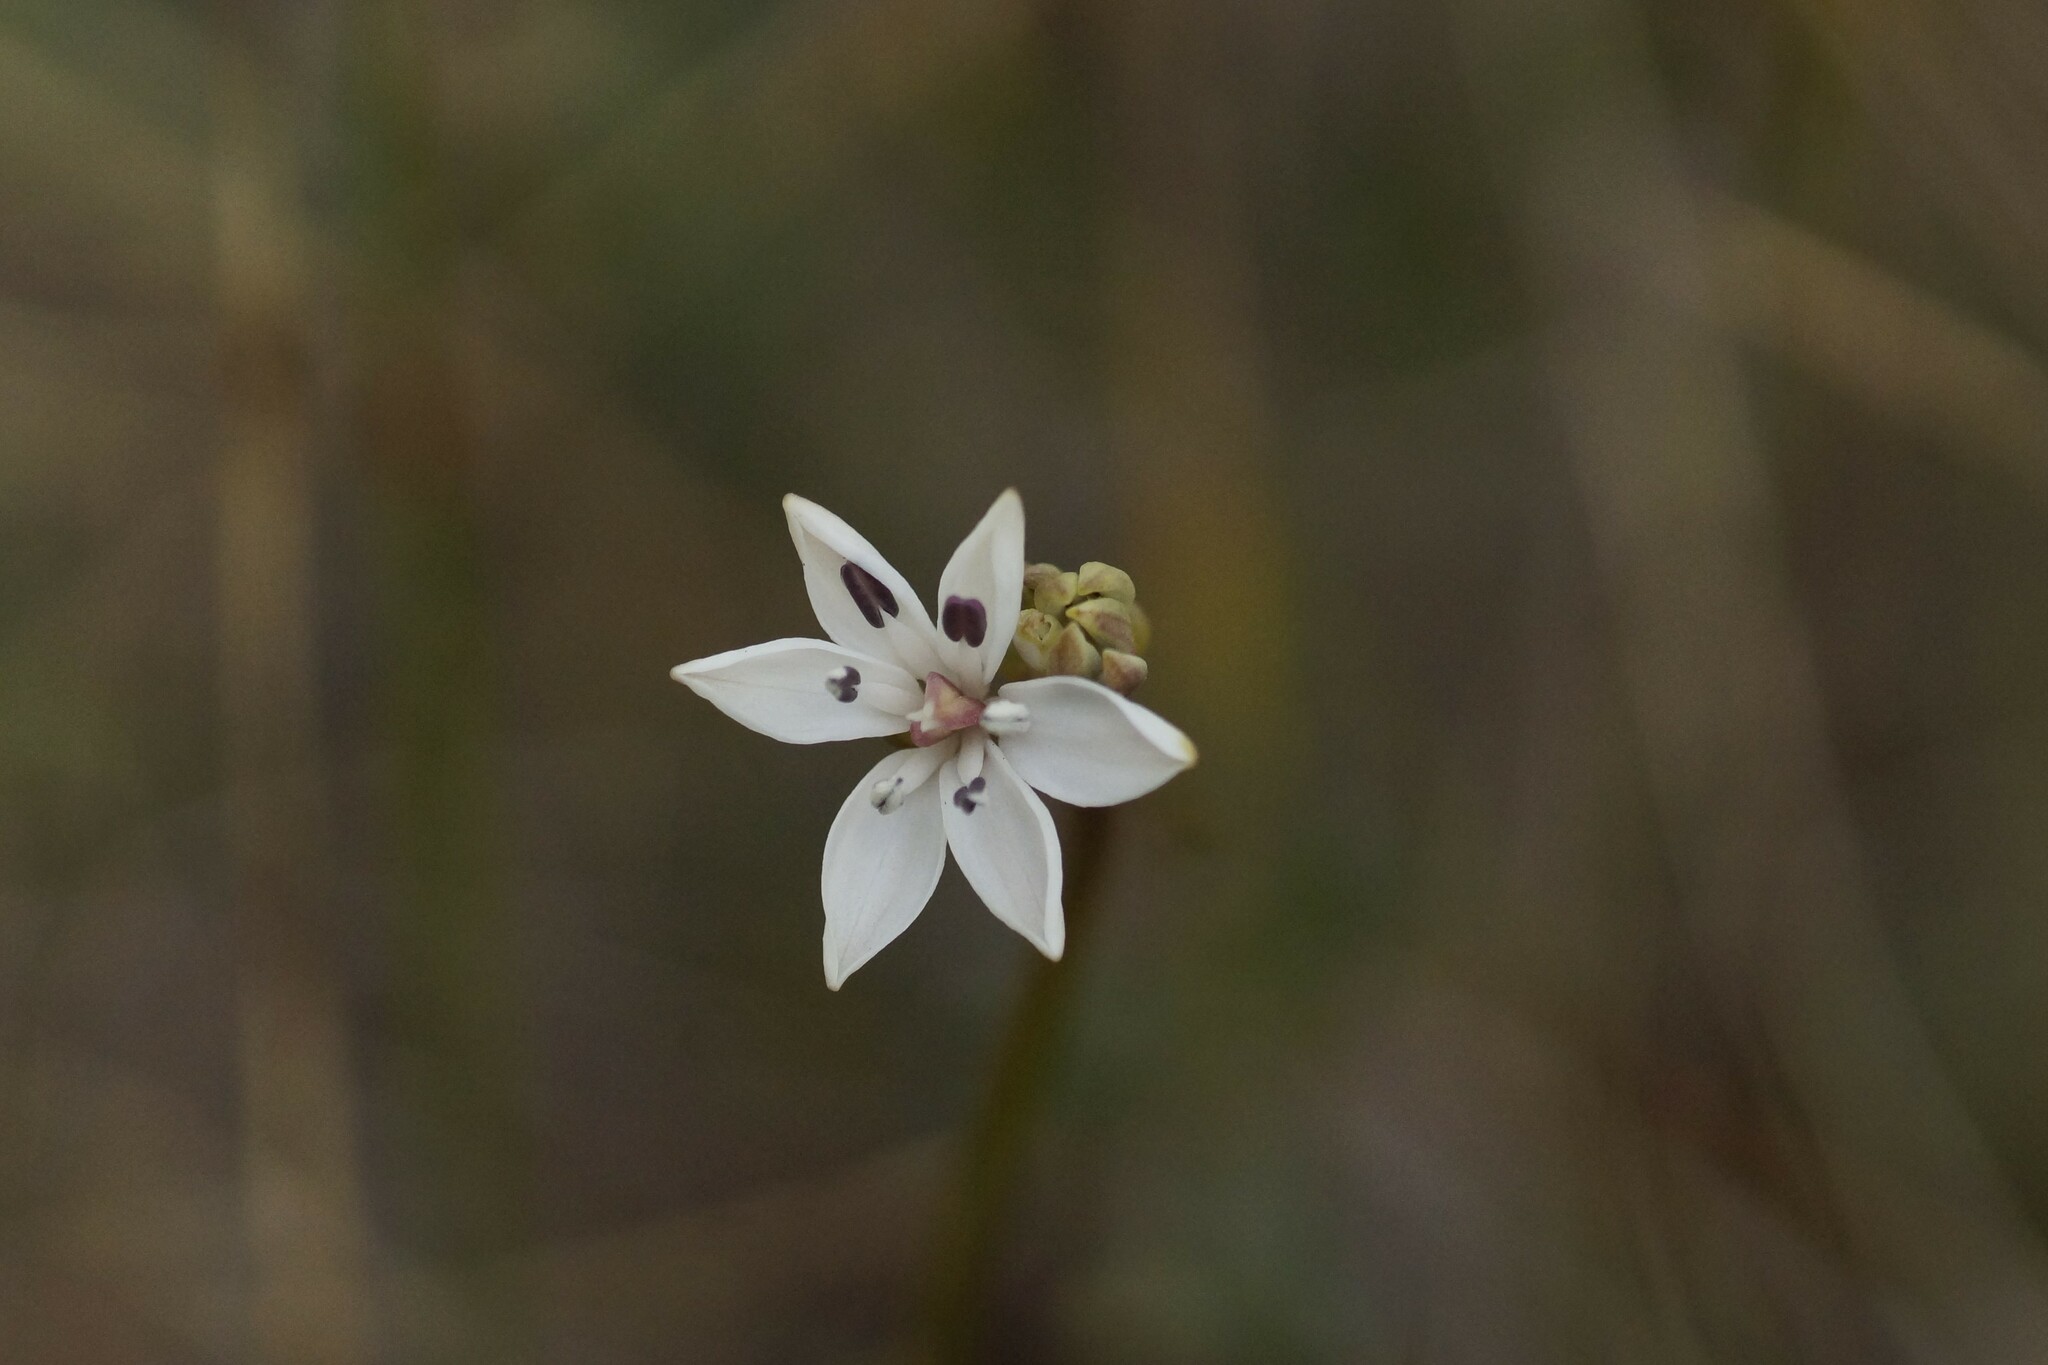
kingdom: Plantae
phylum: Tracheophyta
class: Liliopsida
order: Liliales
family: Colchicaceae
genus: Burchardia
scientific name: Burchardia umbellata
